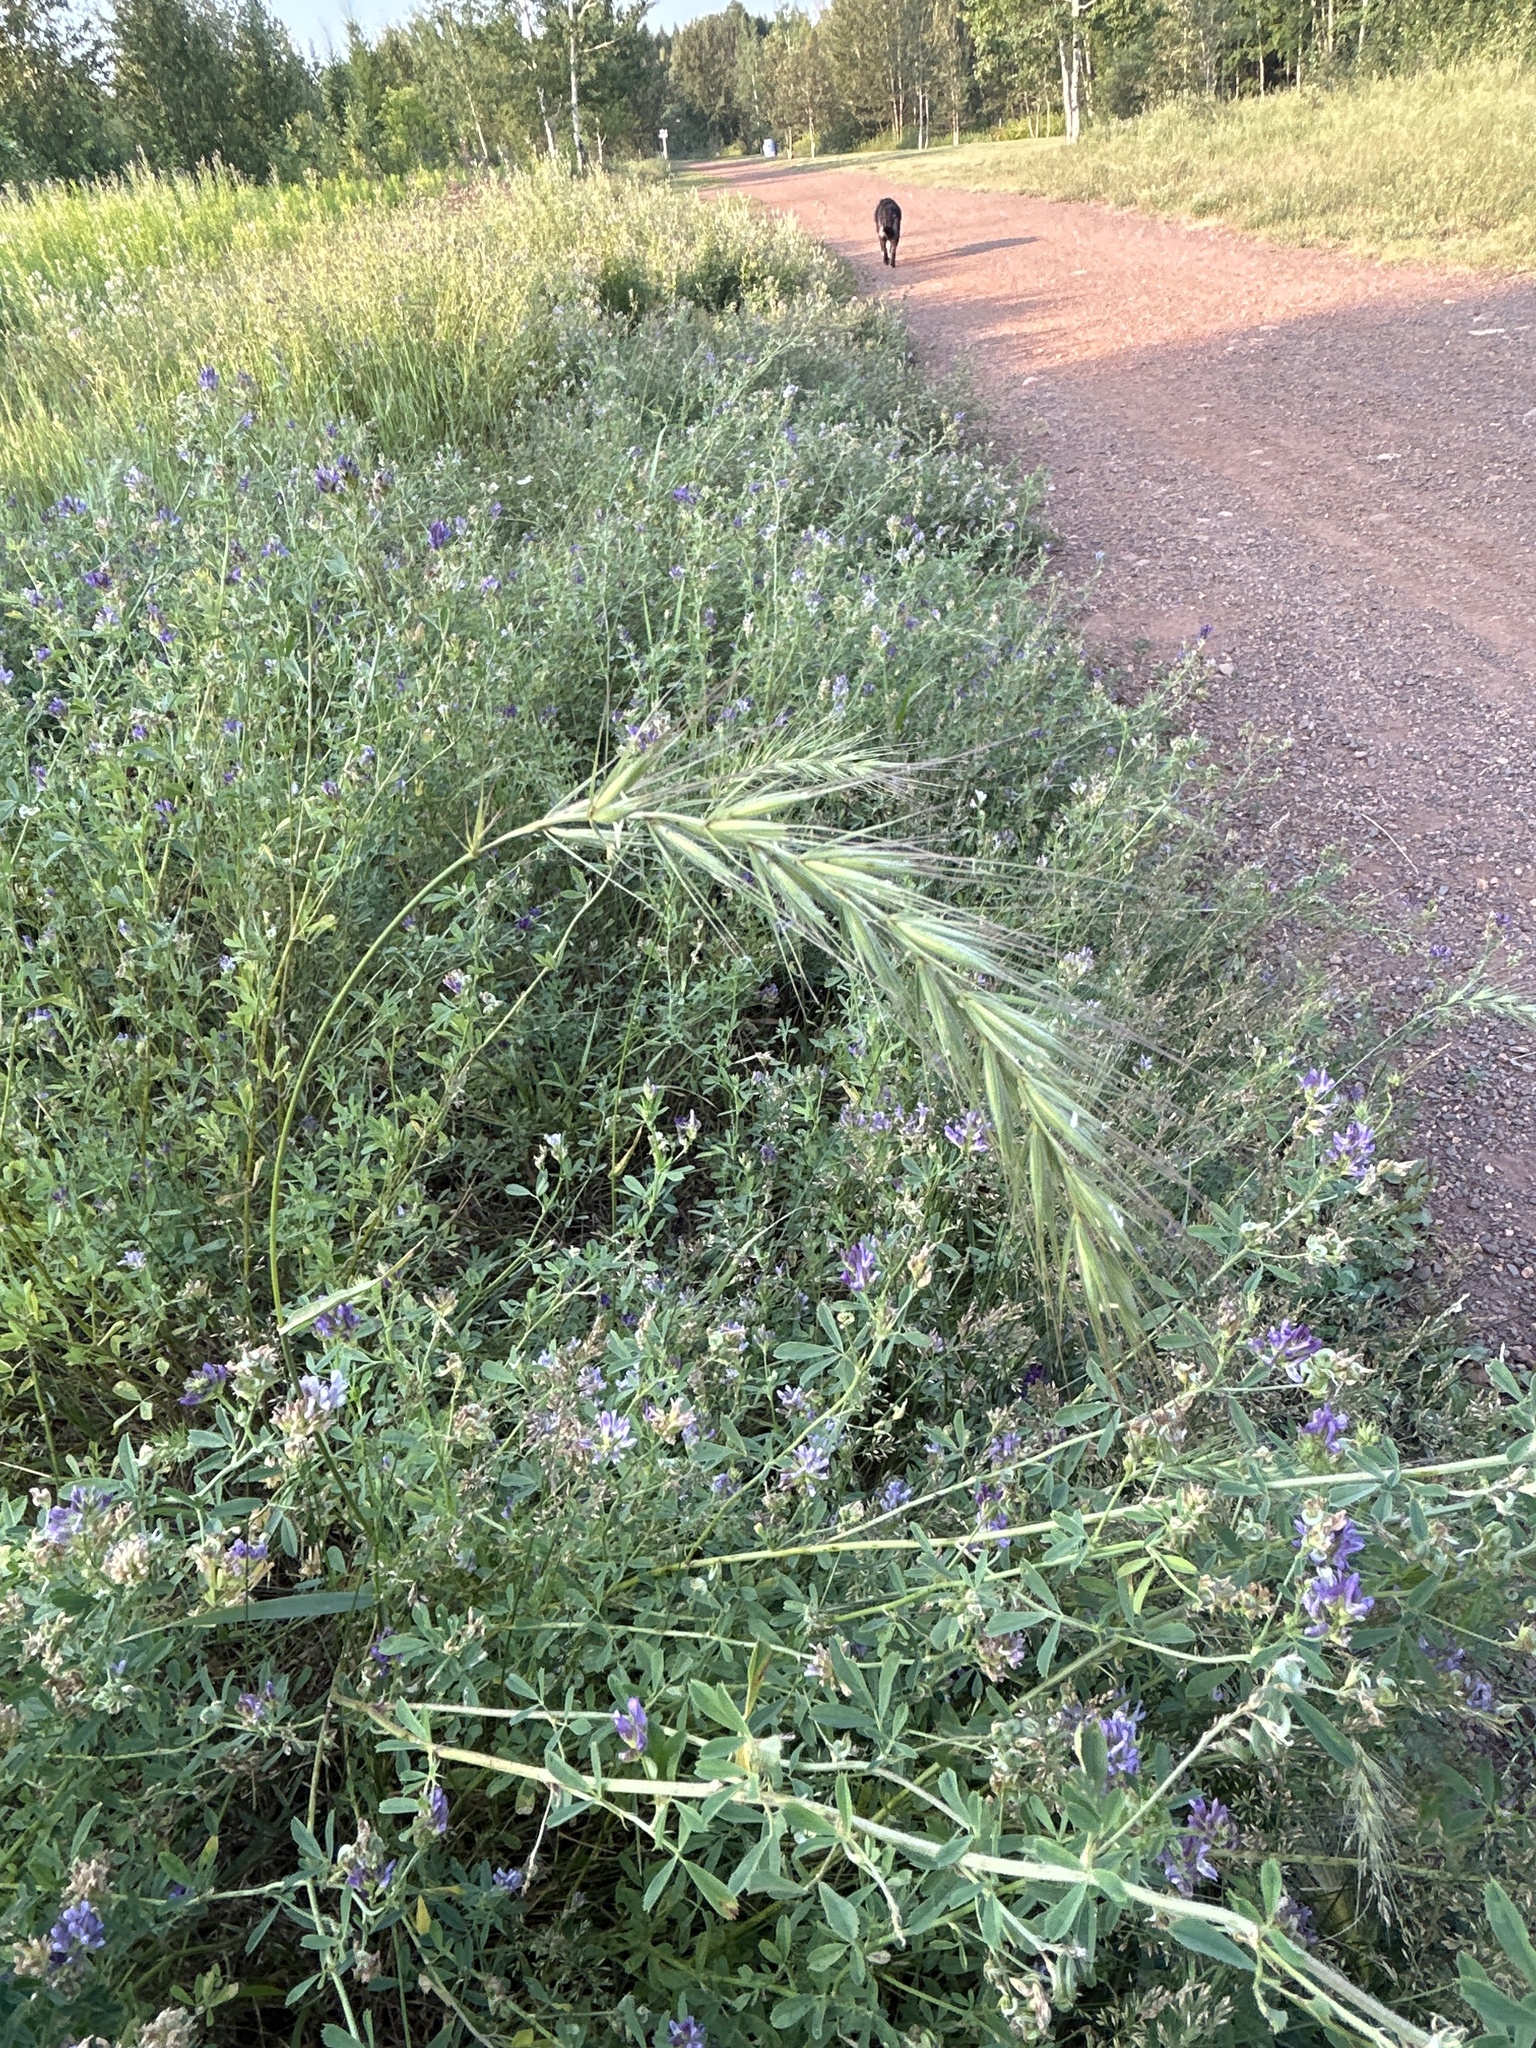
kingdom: Plantae
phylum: Tracheophyta
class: Liliopsida
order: Poales
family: Poaceae
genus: Elymus
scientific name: Elymus canadensis
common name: Canada wild rye
